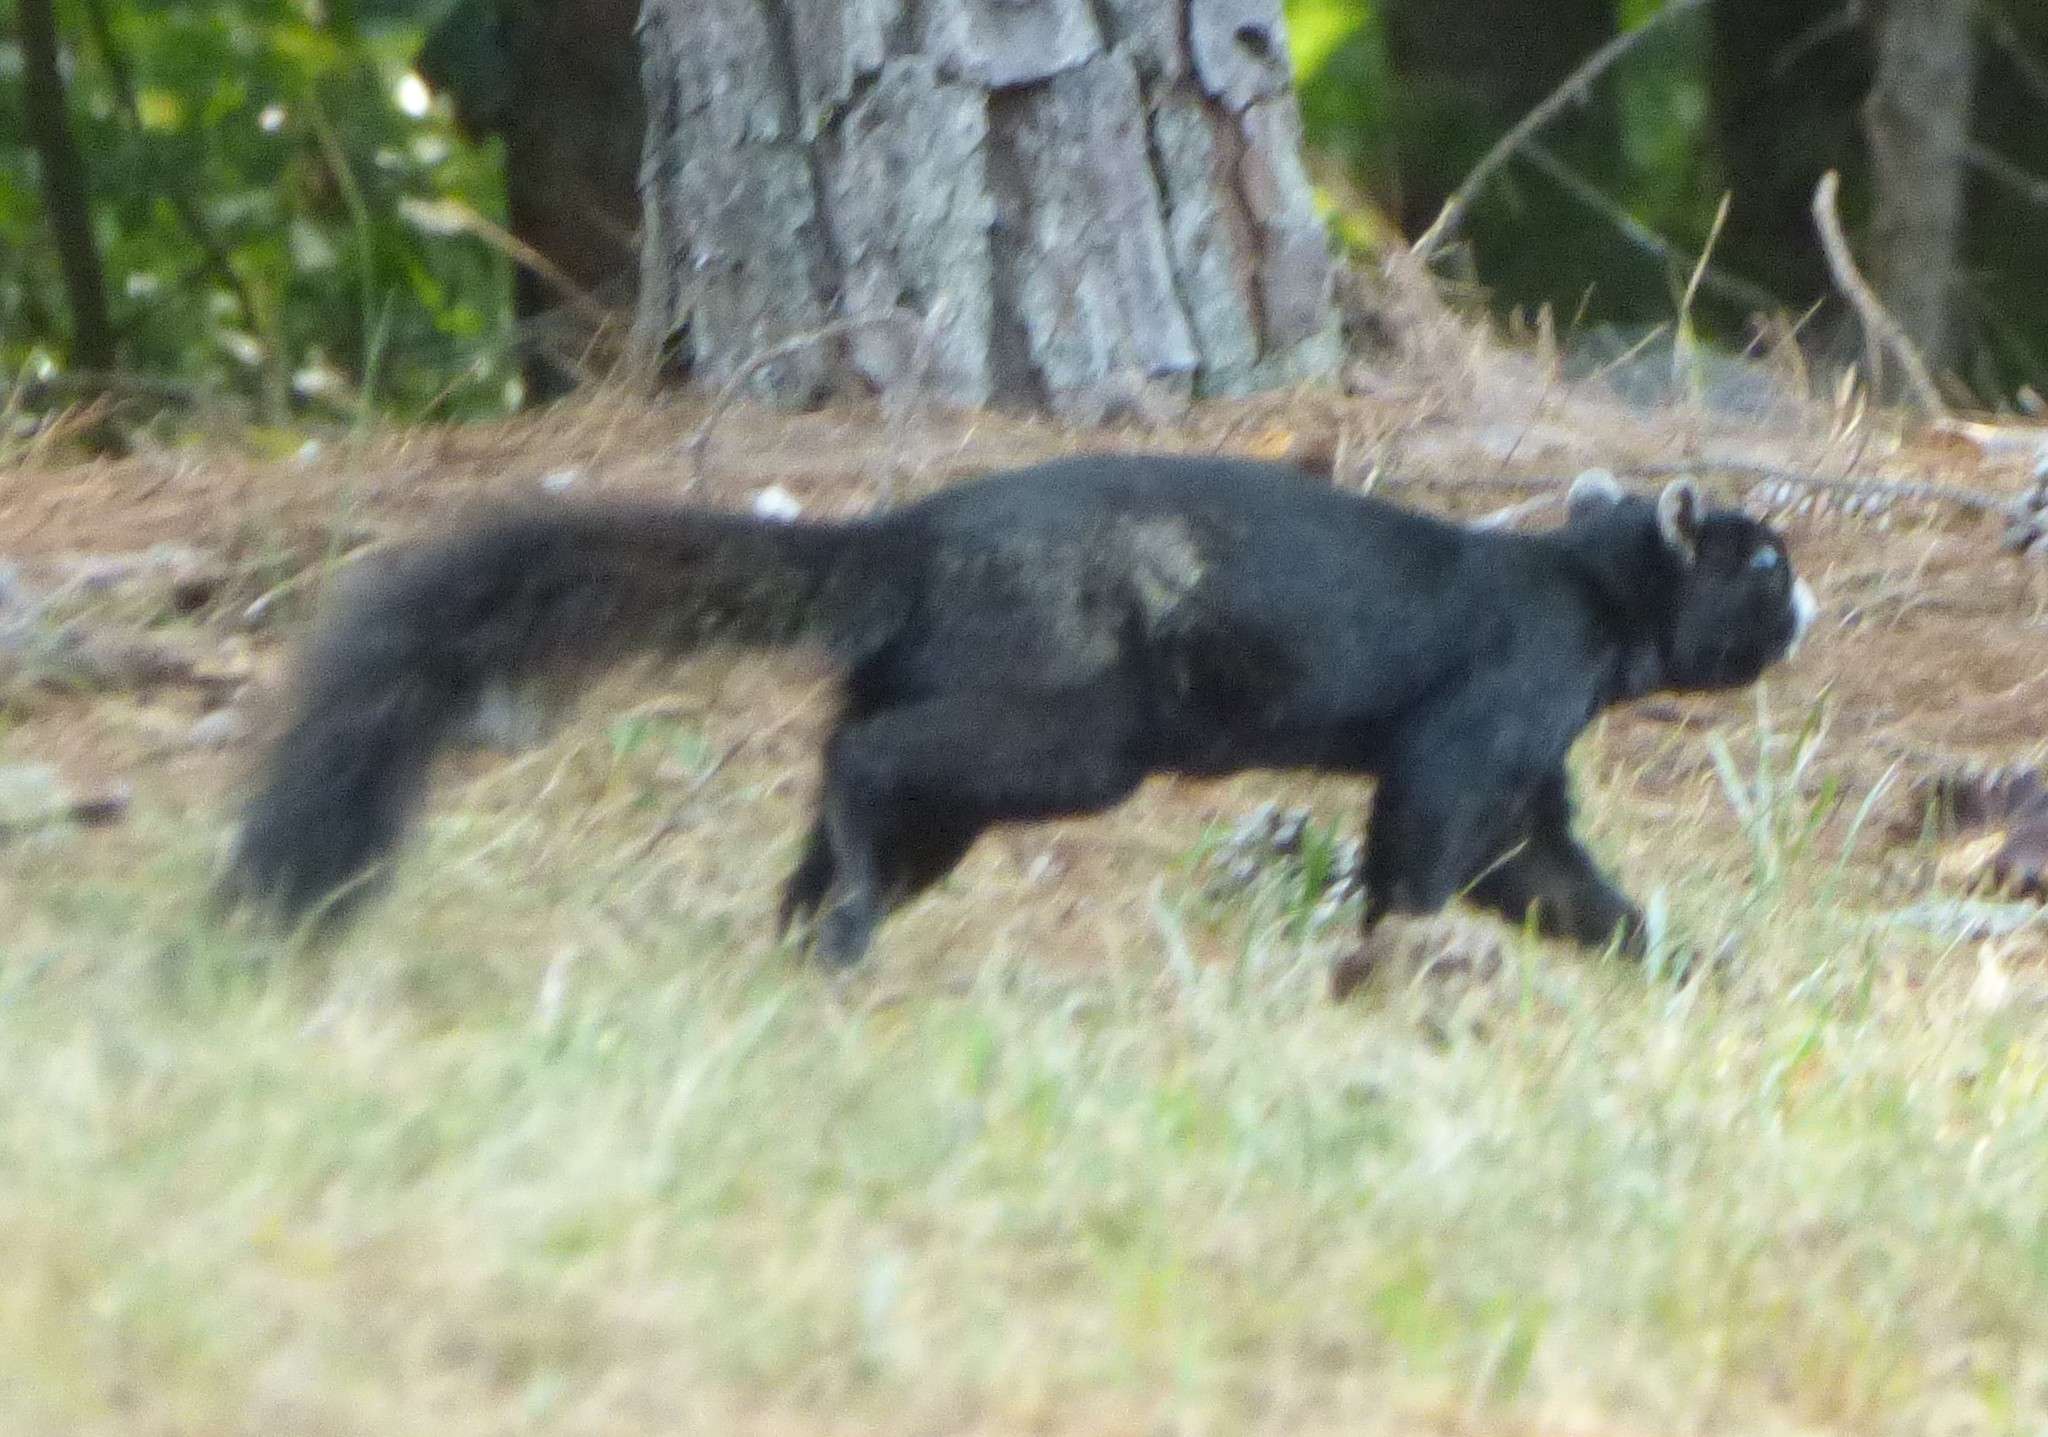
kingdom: Animalia
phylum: Chordata
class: Mammalia
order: Rodentia
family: Sciuridae
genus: Sciurus
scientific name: Sciurus niger
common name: Fox squirrel
